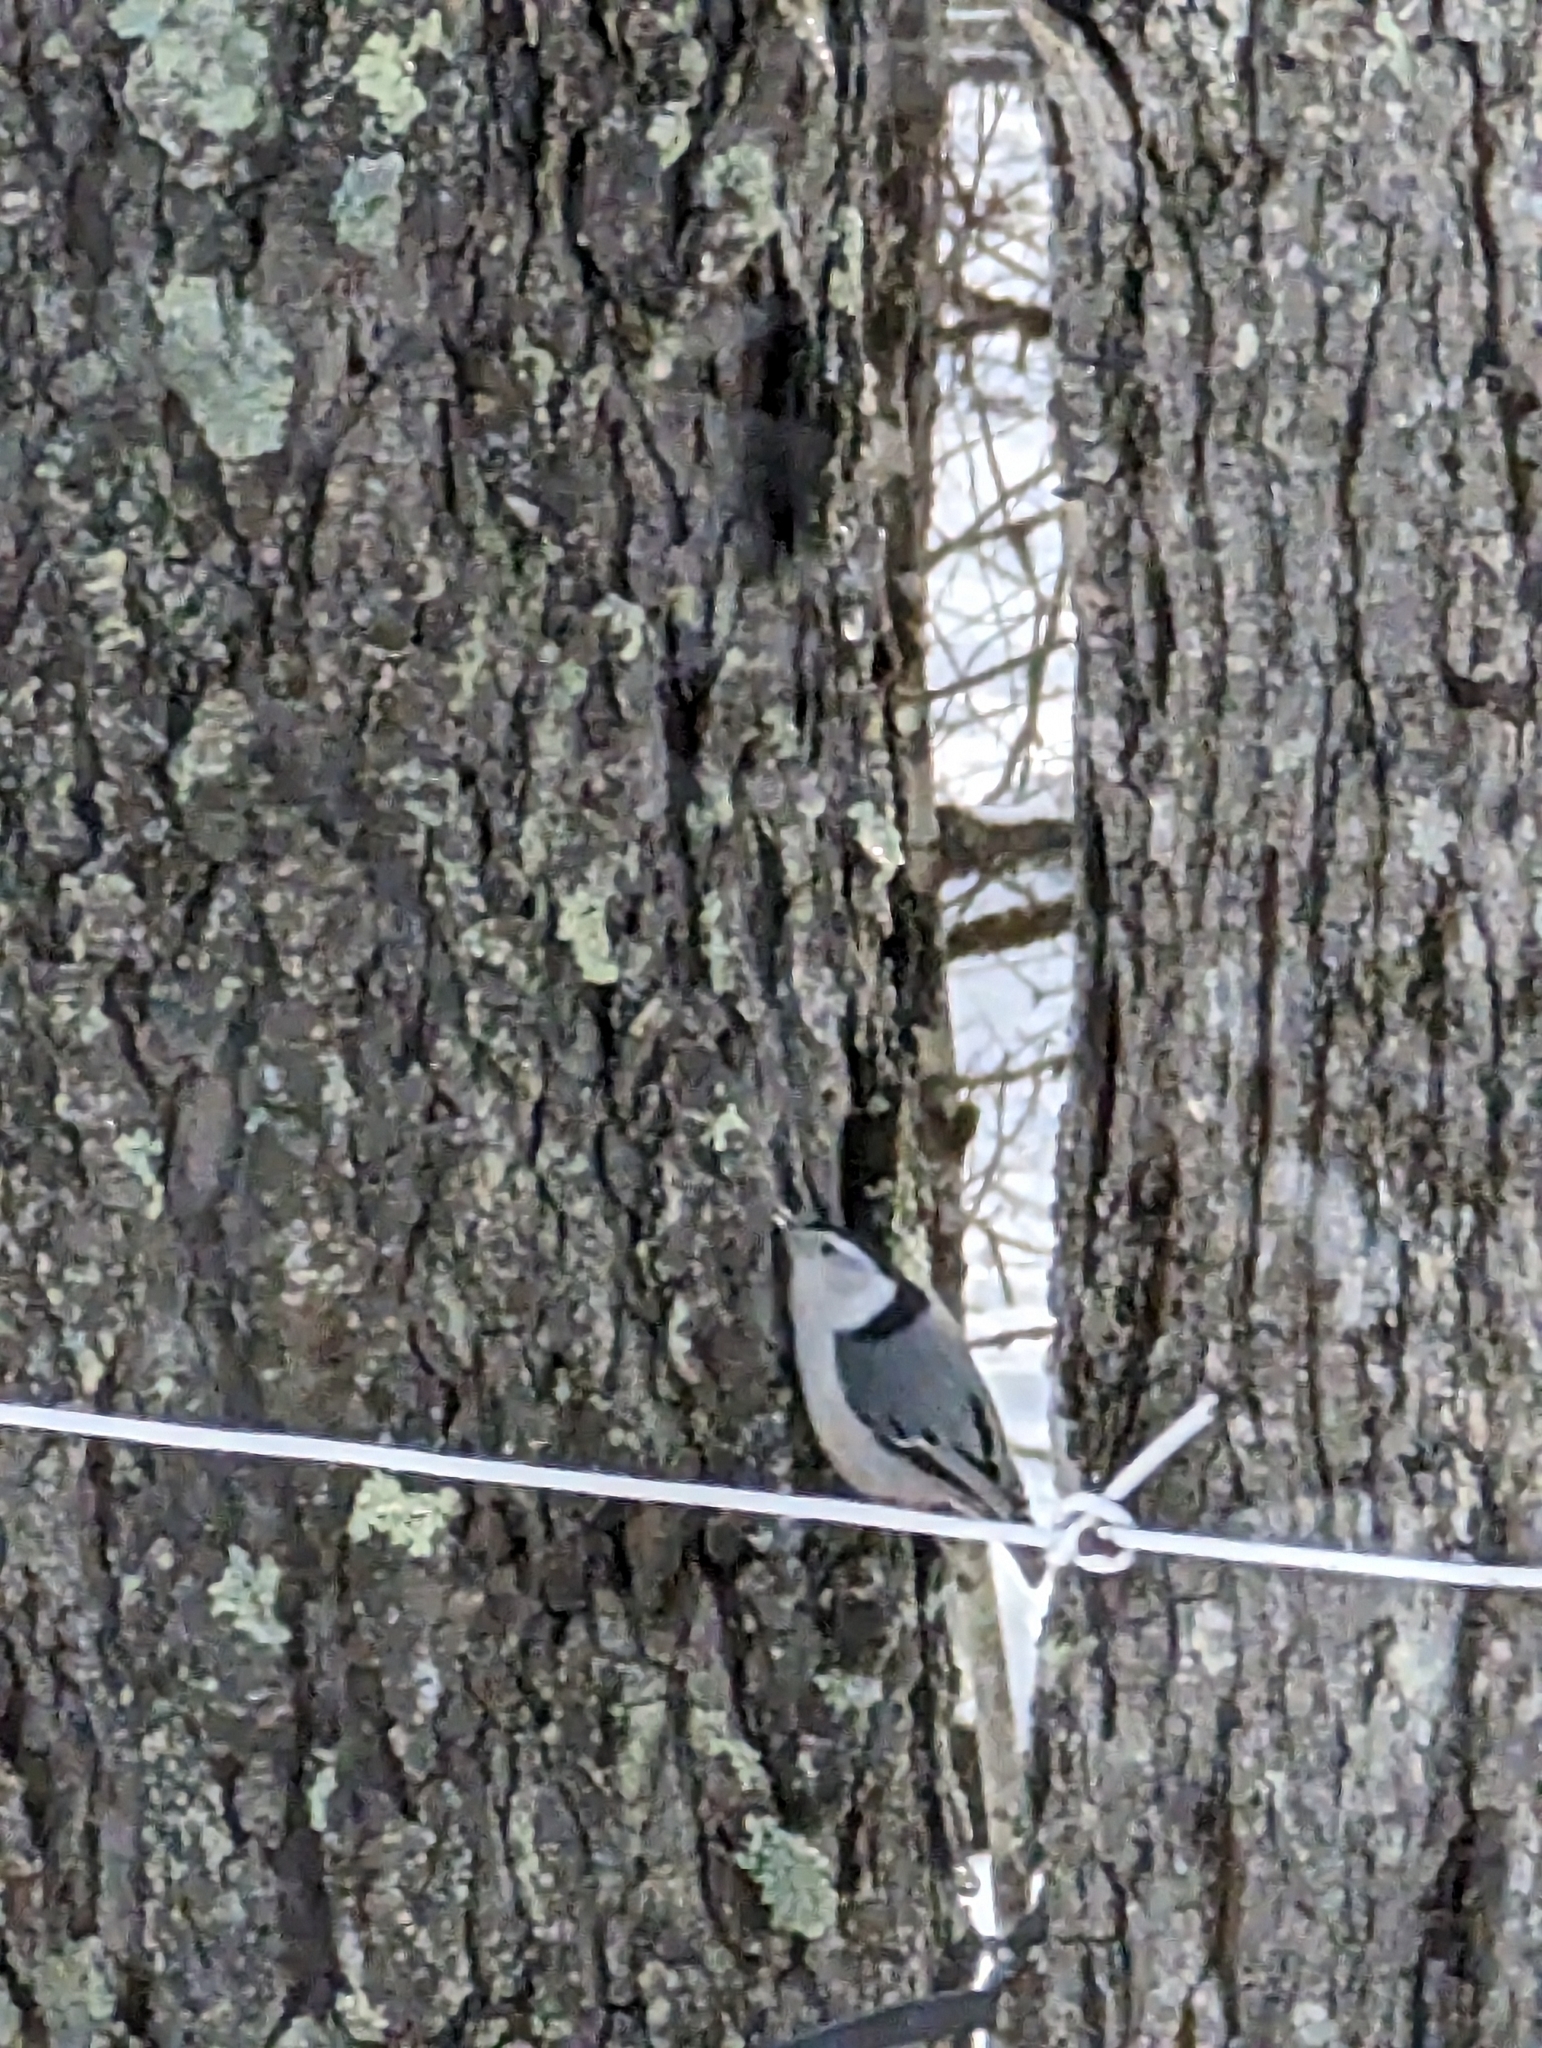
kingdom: Animalia
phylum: Chordata
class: Aves
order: Passeriformes
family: Sittidae
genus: Sitta
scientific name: Sitta carolinensis
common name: White-breasted nuthatch
